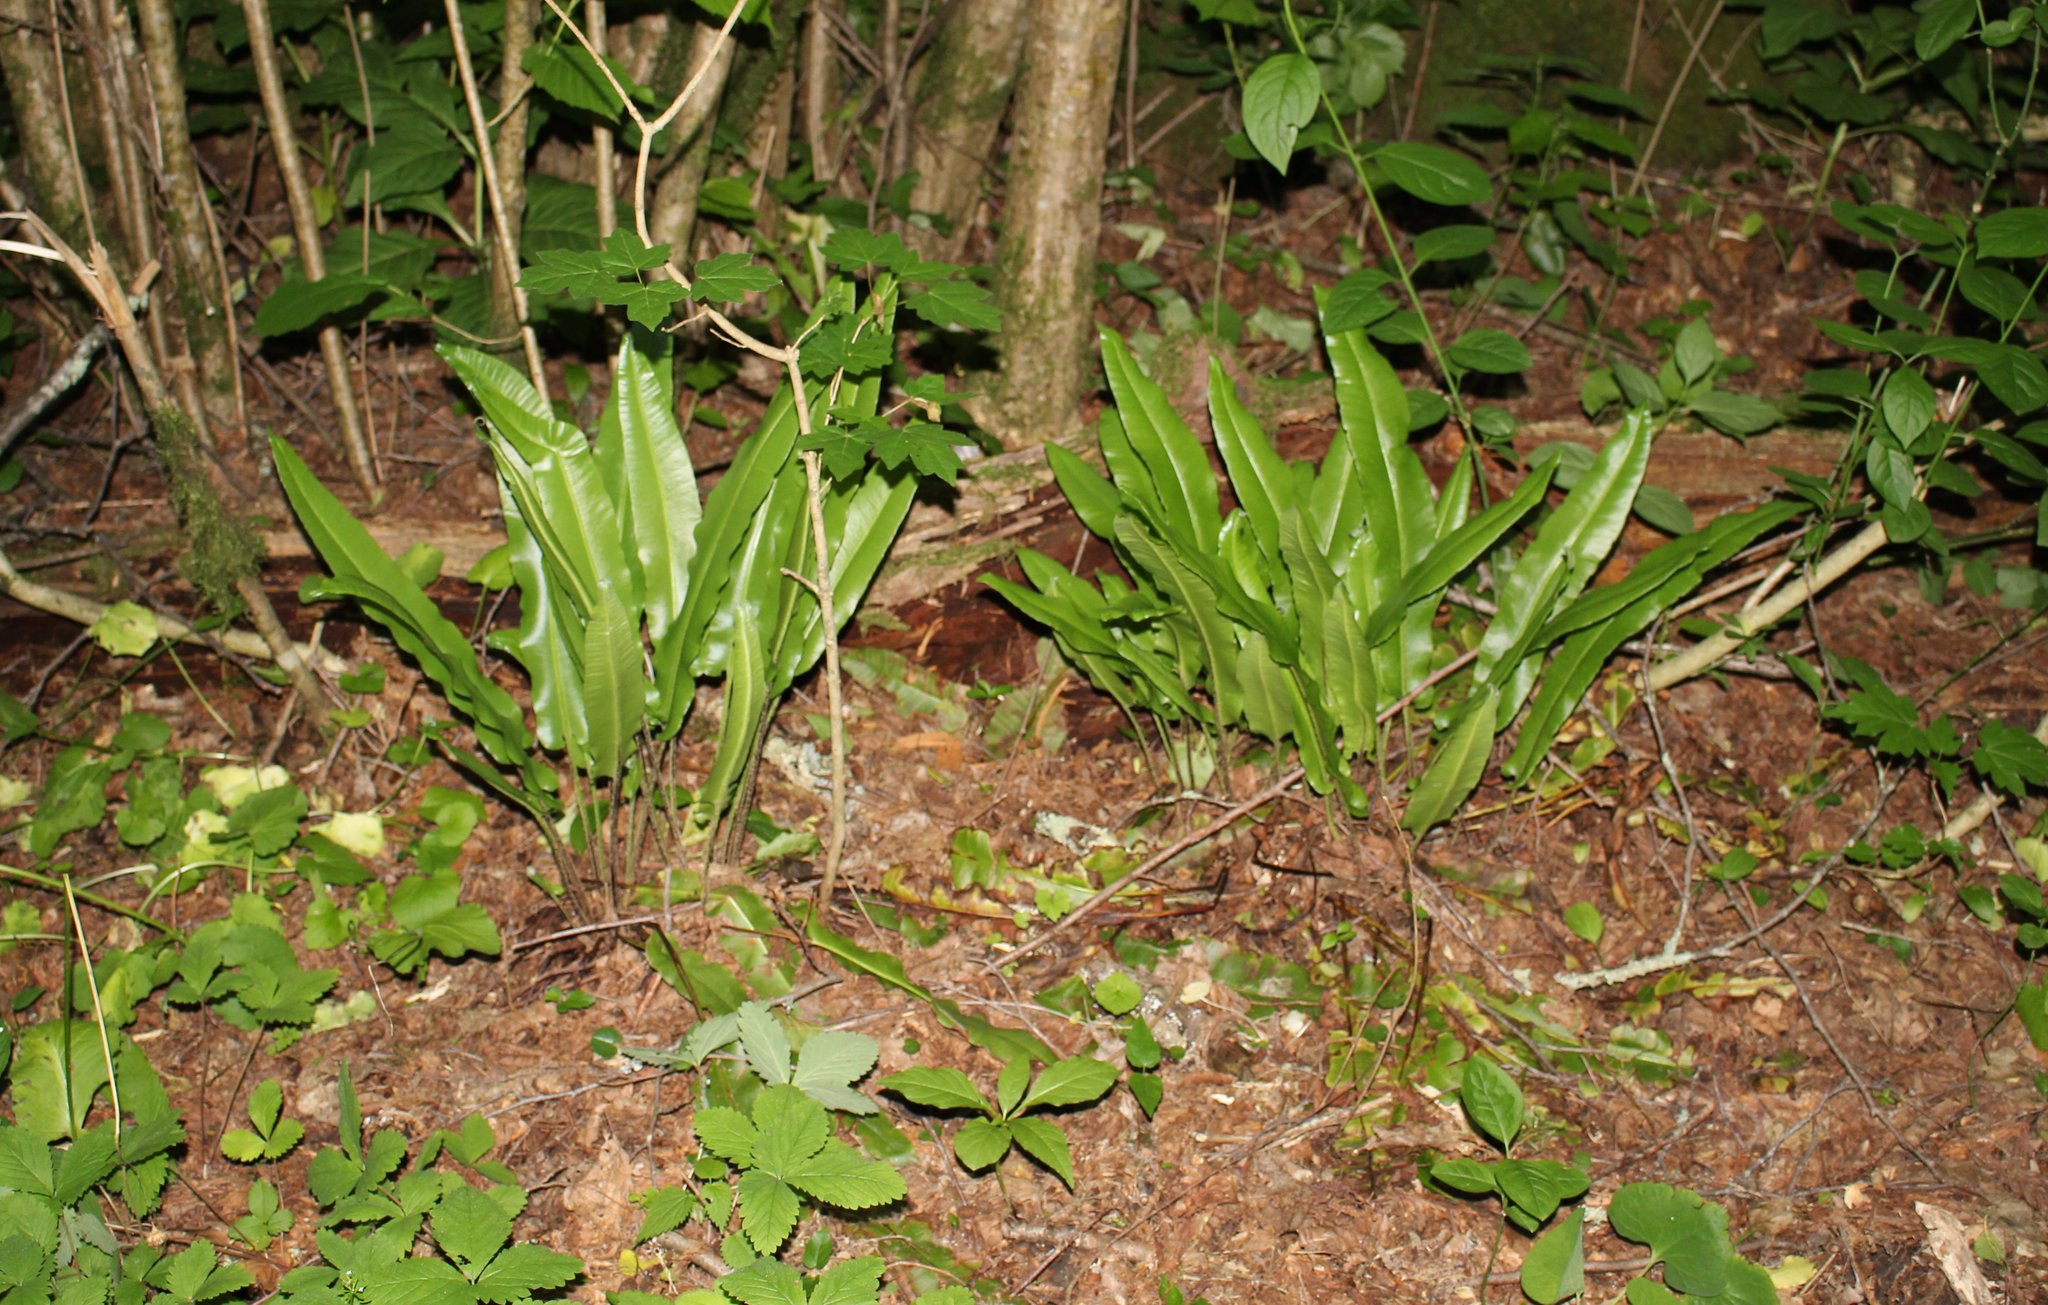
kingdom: Plantae
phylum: Tracheophyta
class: Polypodiopsida
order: Polypodiales
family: Aspleniaceae
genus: Asplenium
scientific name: Asplenium scolopendrium
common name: Hart's-tongue fern
